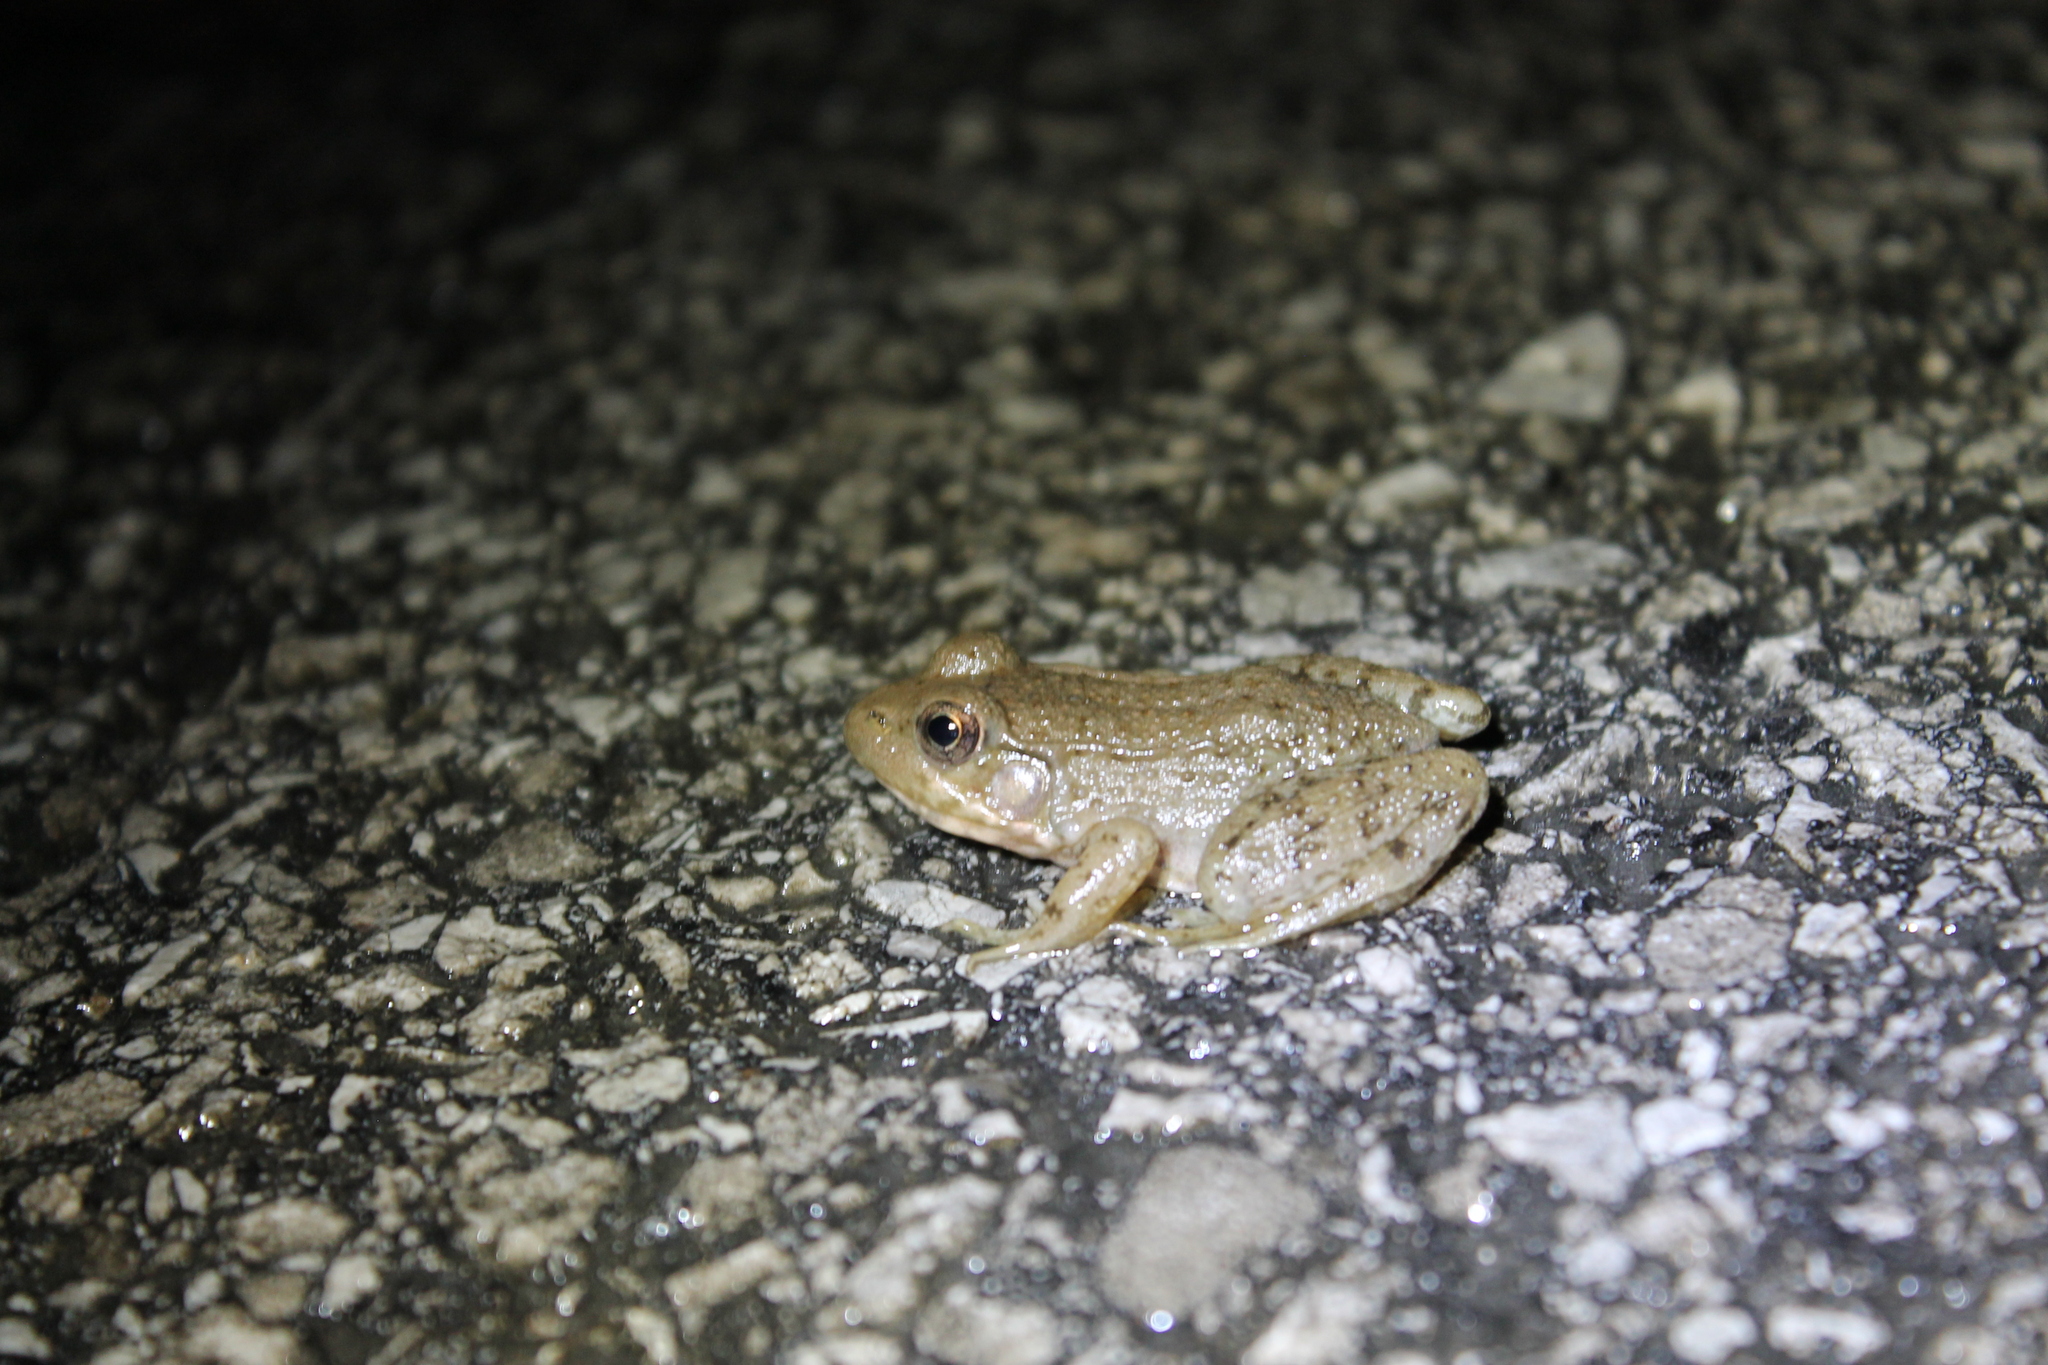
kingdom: Animalia
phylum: Chordata
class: Amphibia
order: Anura
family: Ranidae
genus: Lithobates
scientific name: Lithobates clamitans
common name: Green frog
